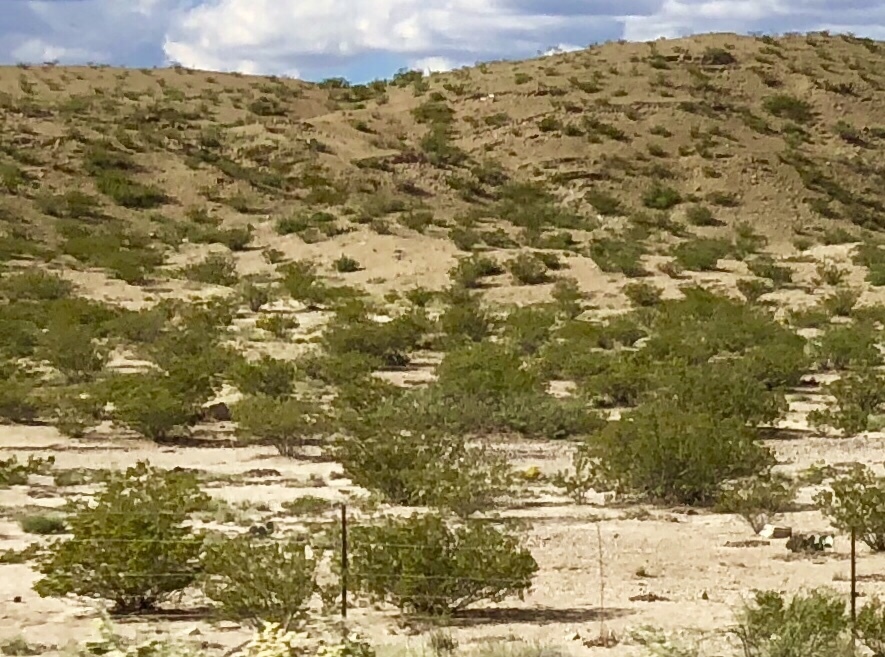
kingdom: Plantae
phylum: Tracheophyta
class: Magnoliopsida
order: Zygophyllales
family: Zygophyllaceae
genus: Larrea
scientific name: Larrea tridentata
